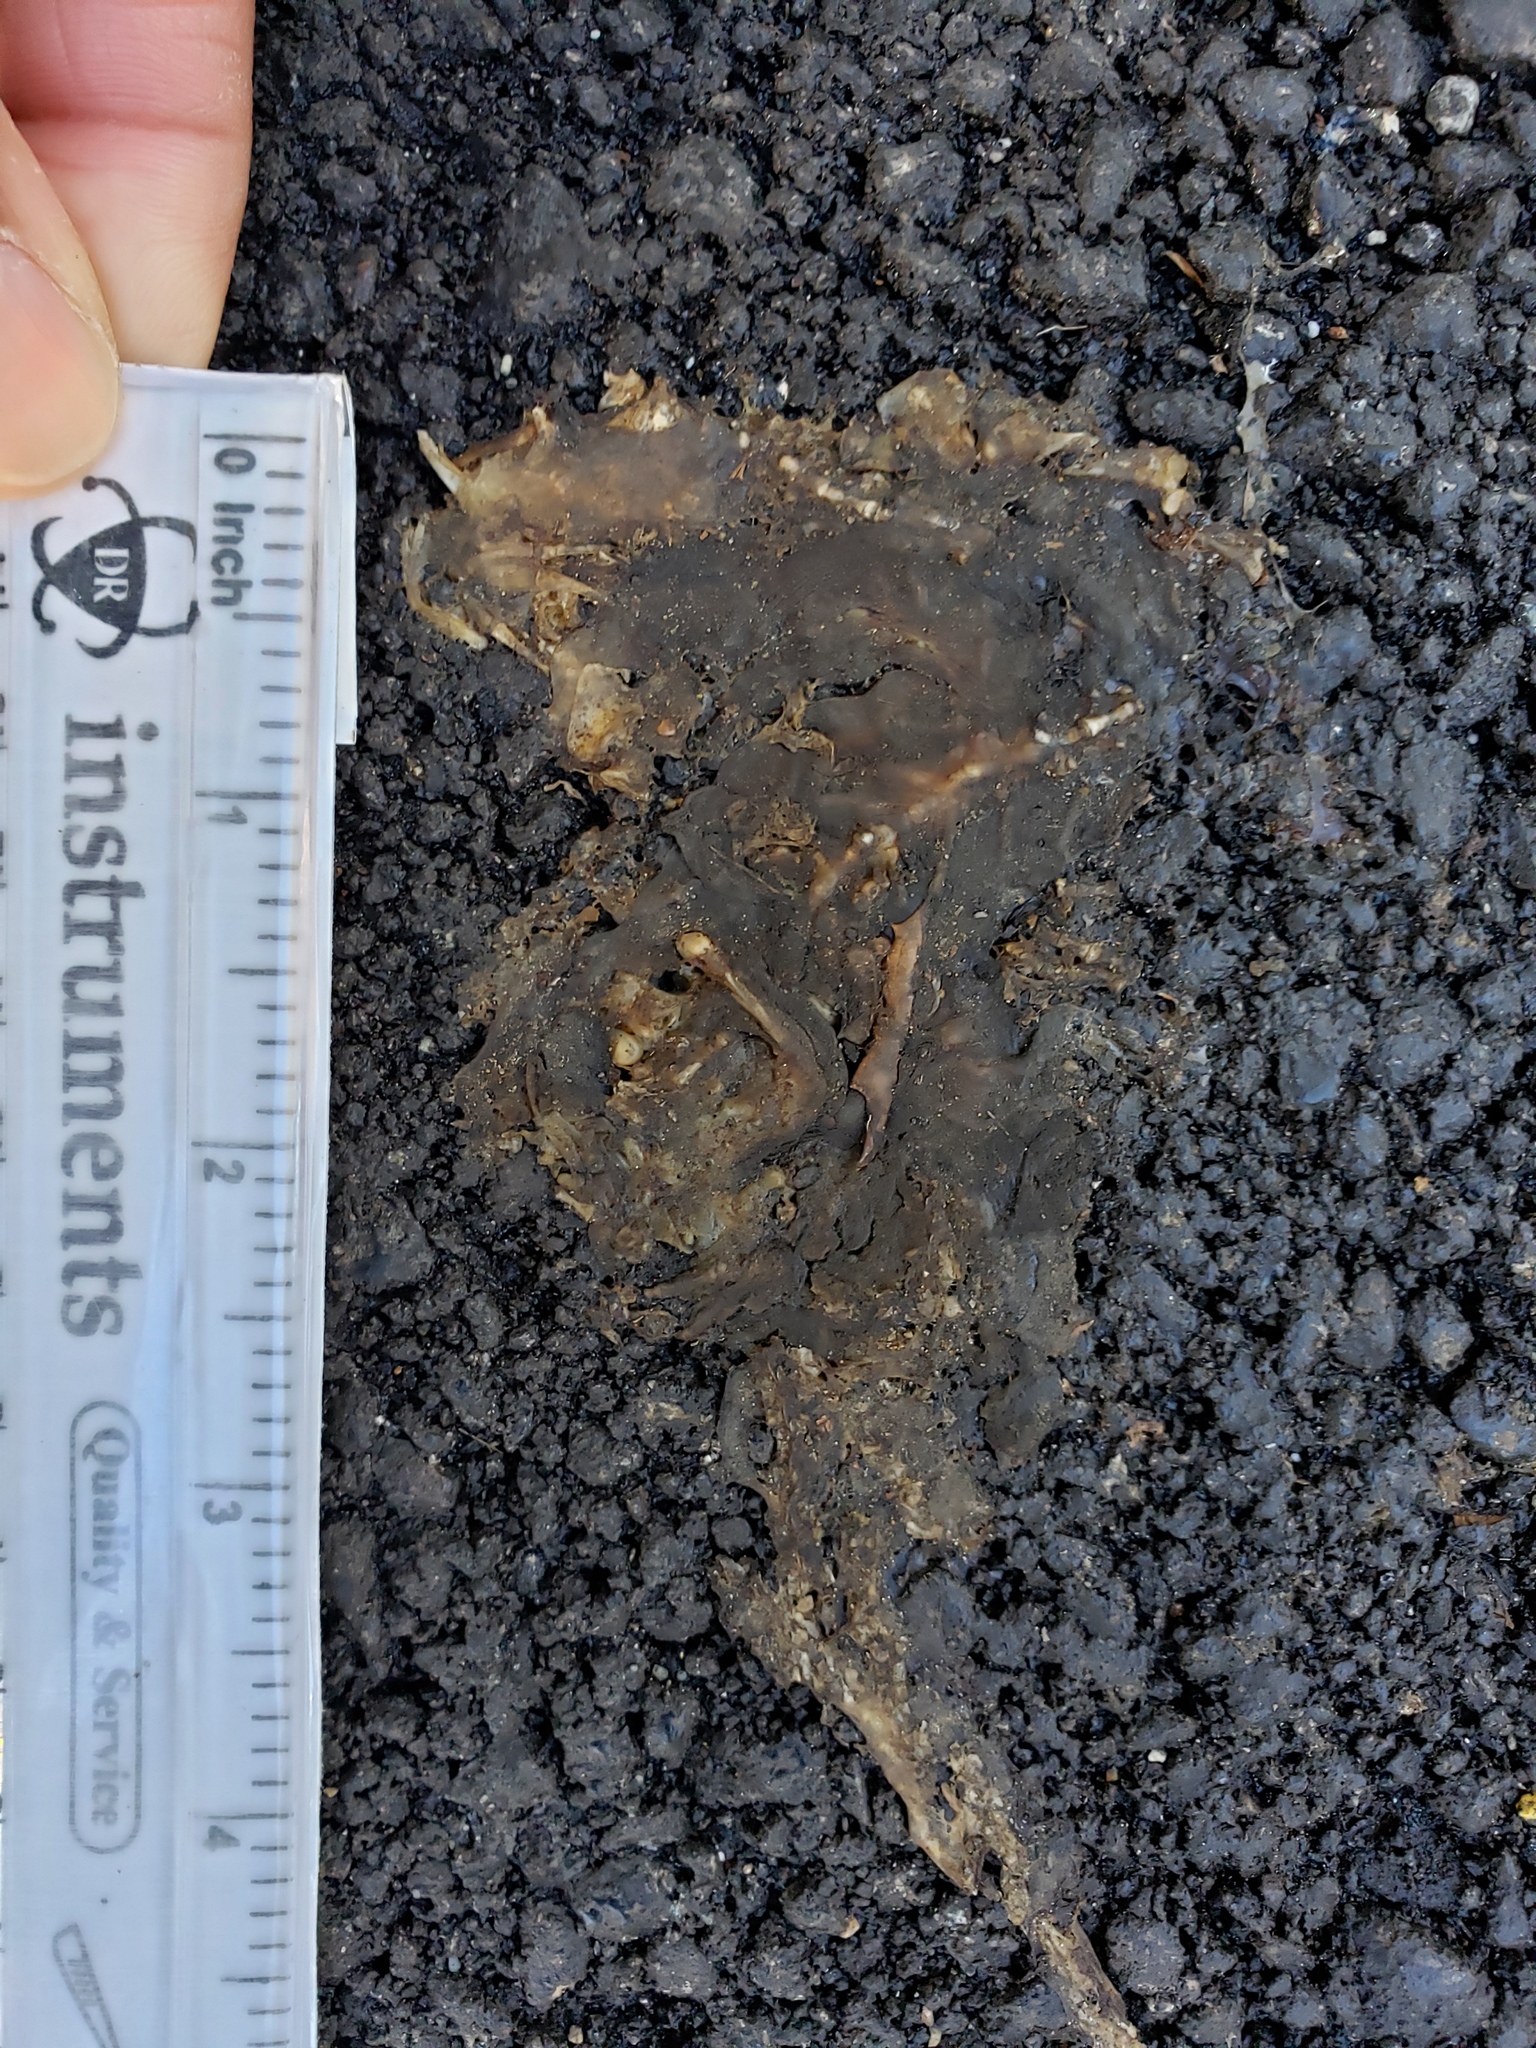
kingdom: Animalia
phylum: Chordata
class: Amphibia
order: Caudata
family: Salamandridae
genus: Taricha
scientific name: Taricha
